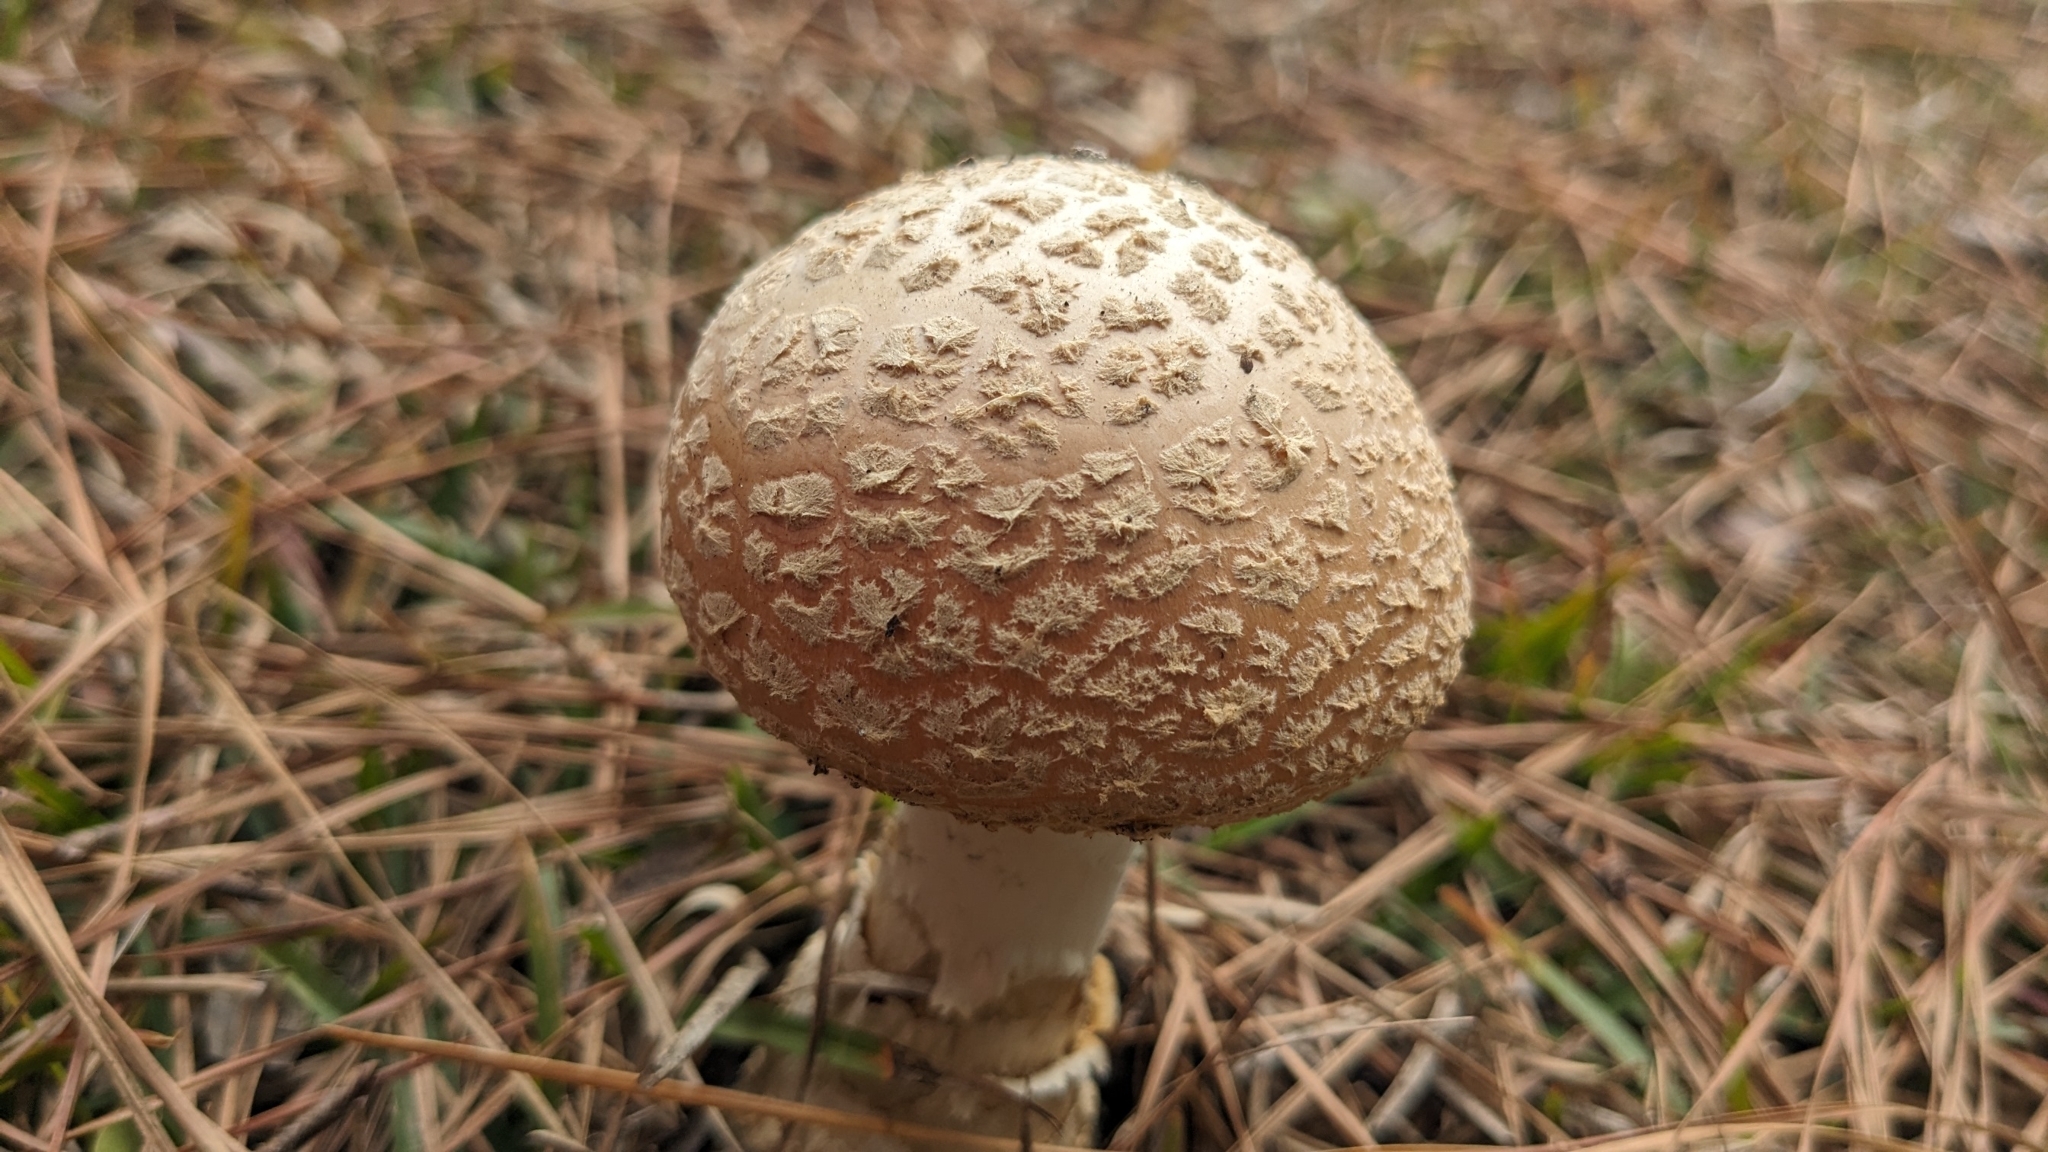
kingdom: Fungi
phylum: Basidiomycota
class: Agaricomycetes
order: Agaricales
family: Amanitaceae
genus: Amanita
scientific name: Amanita persicina
